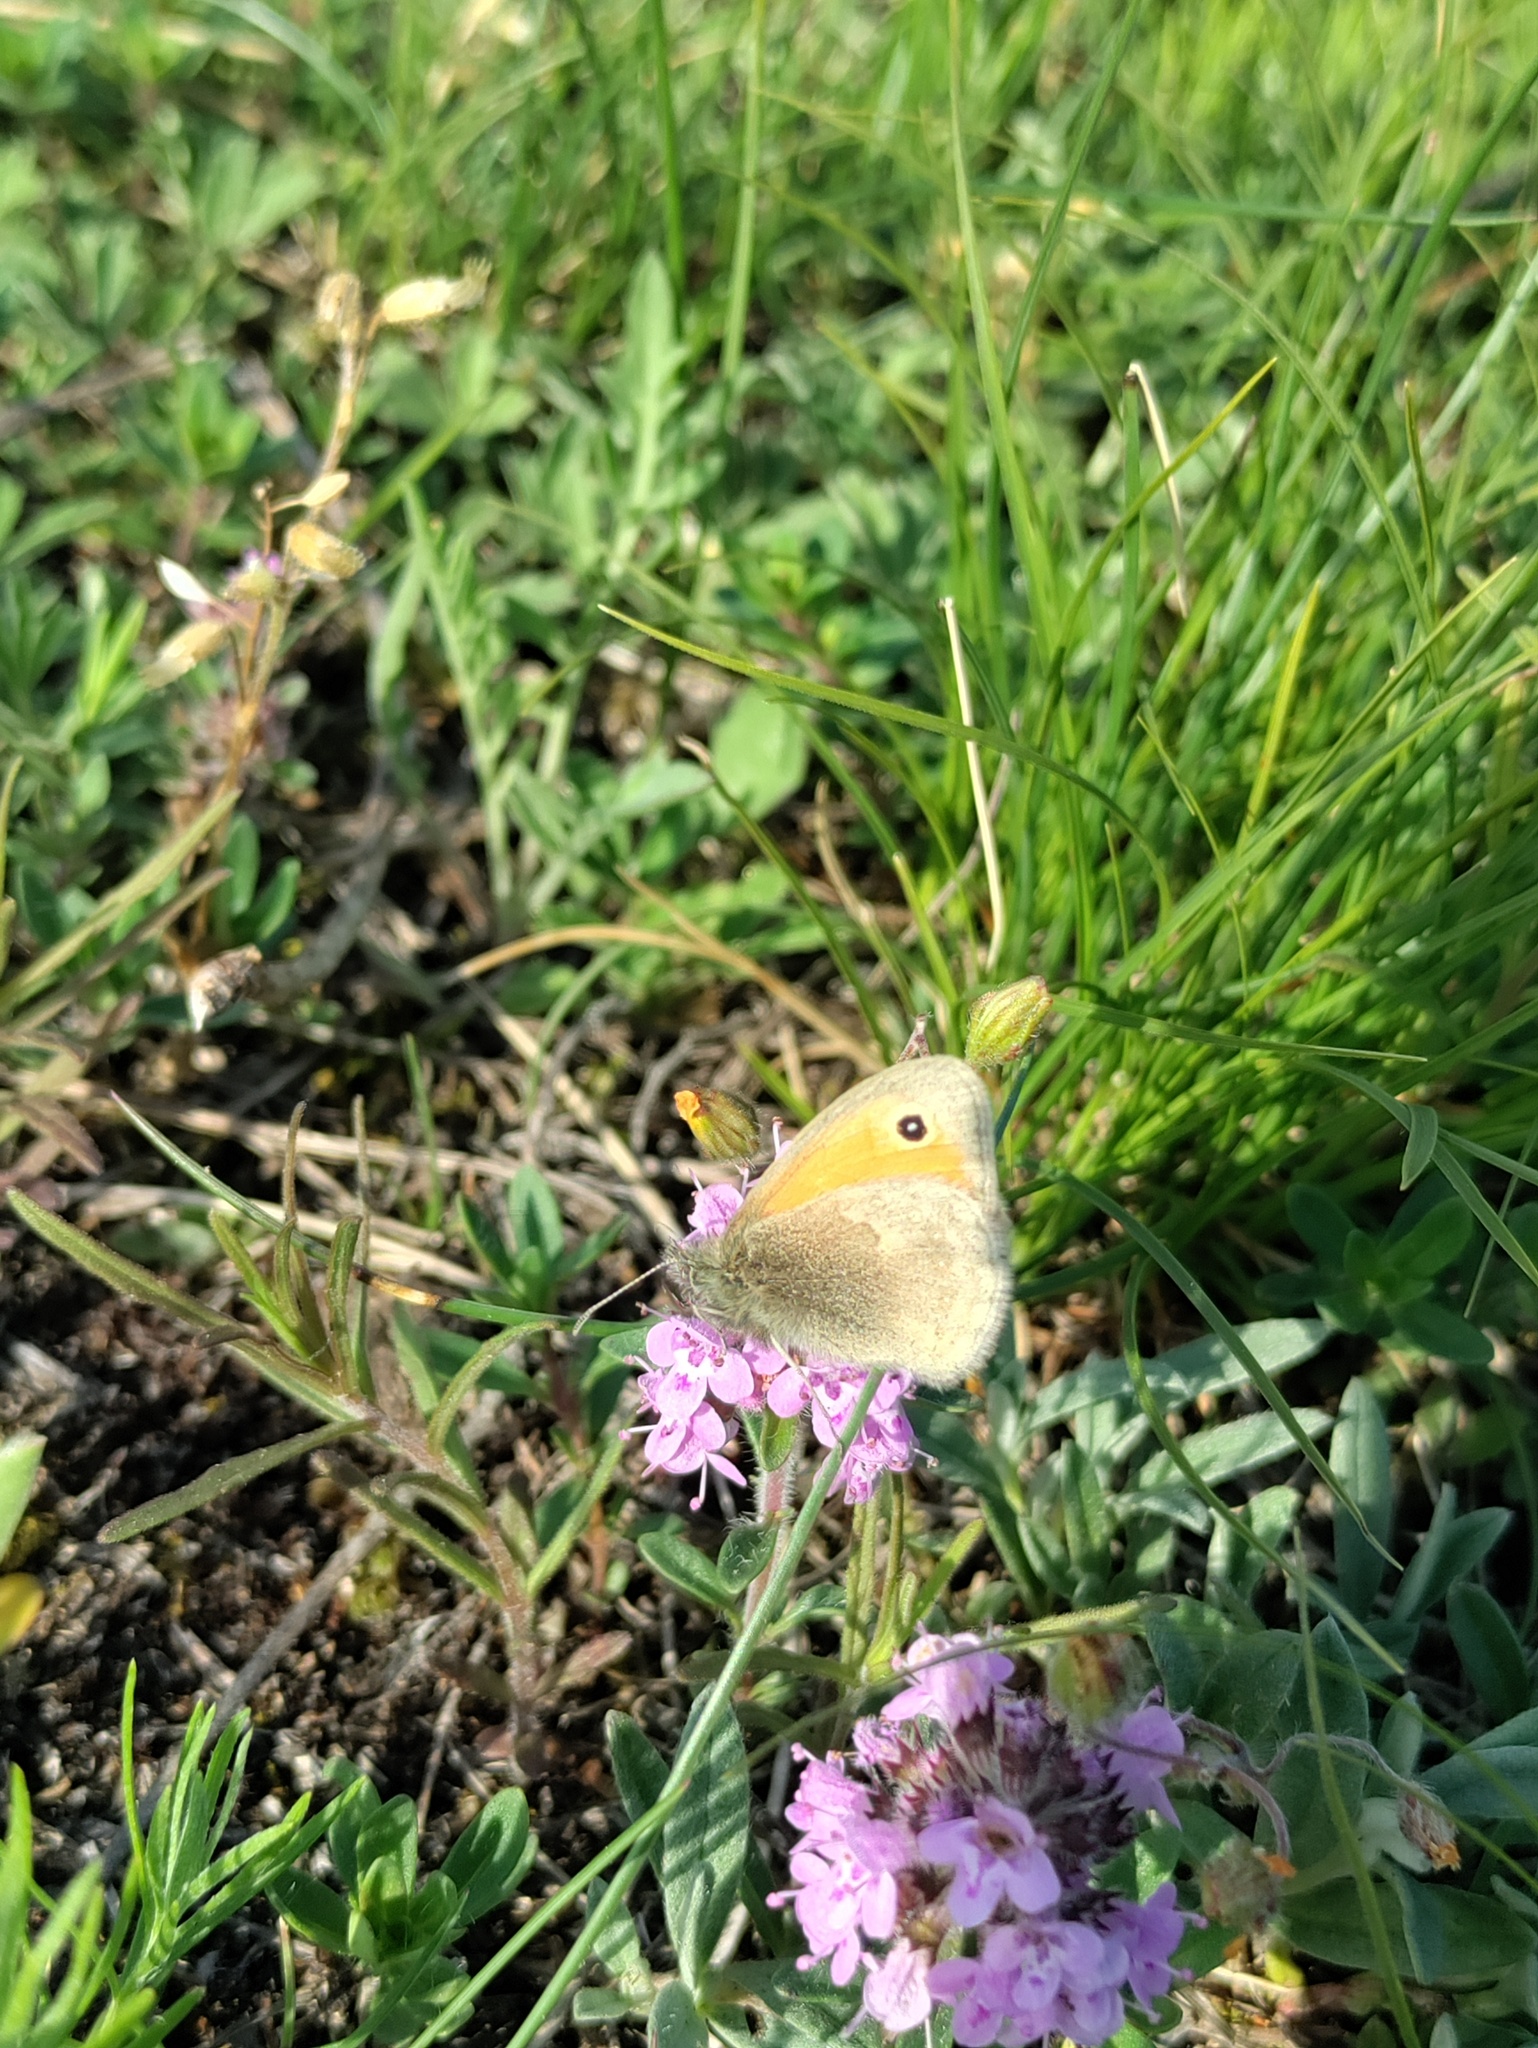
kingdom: Animalia
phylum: Arthropoda
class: Insecta
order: Lepidoptera
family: Nymphalidae
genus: Coenonympha
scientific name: Coenonympha pamphilus
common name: Small heath
